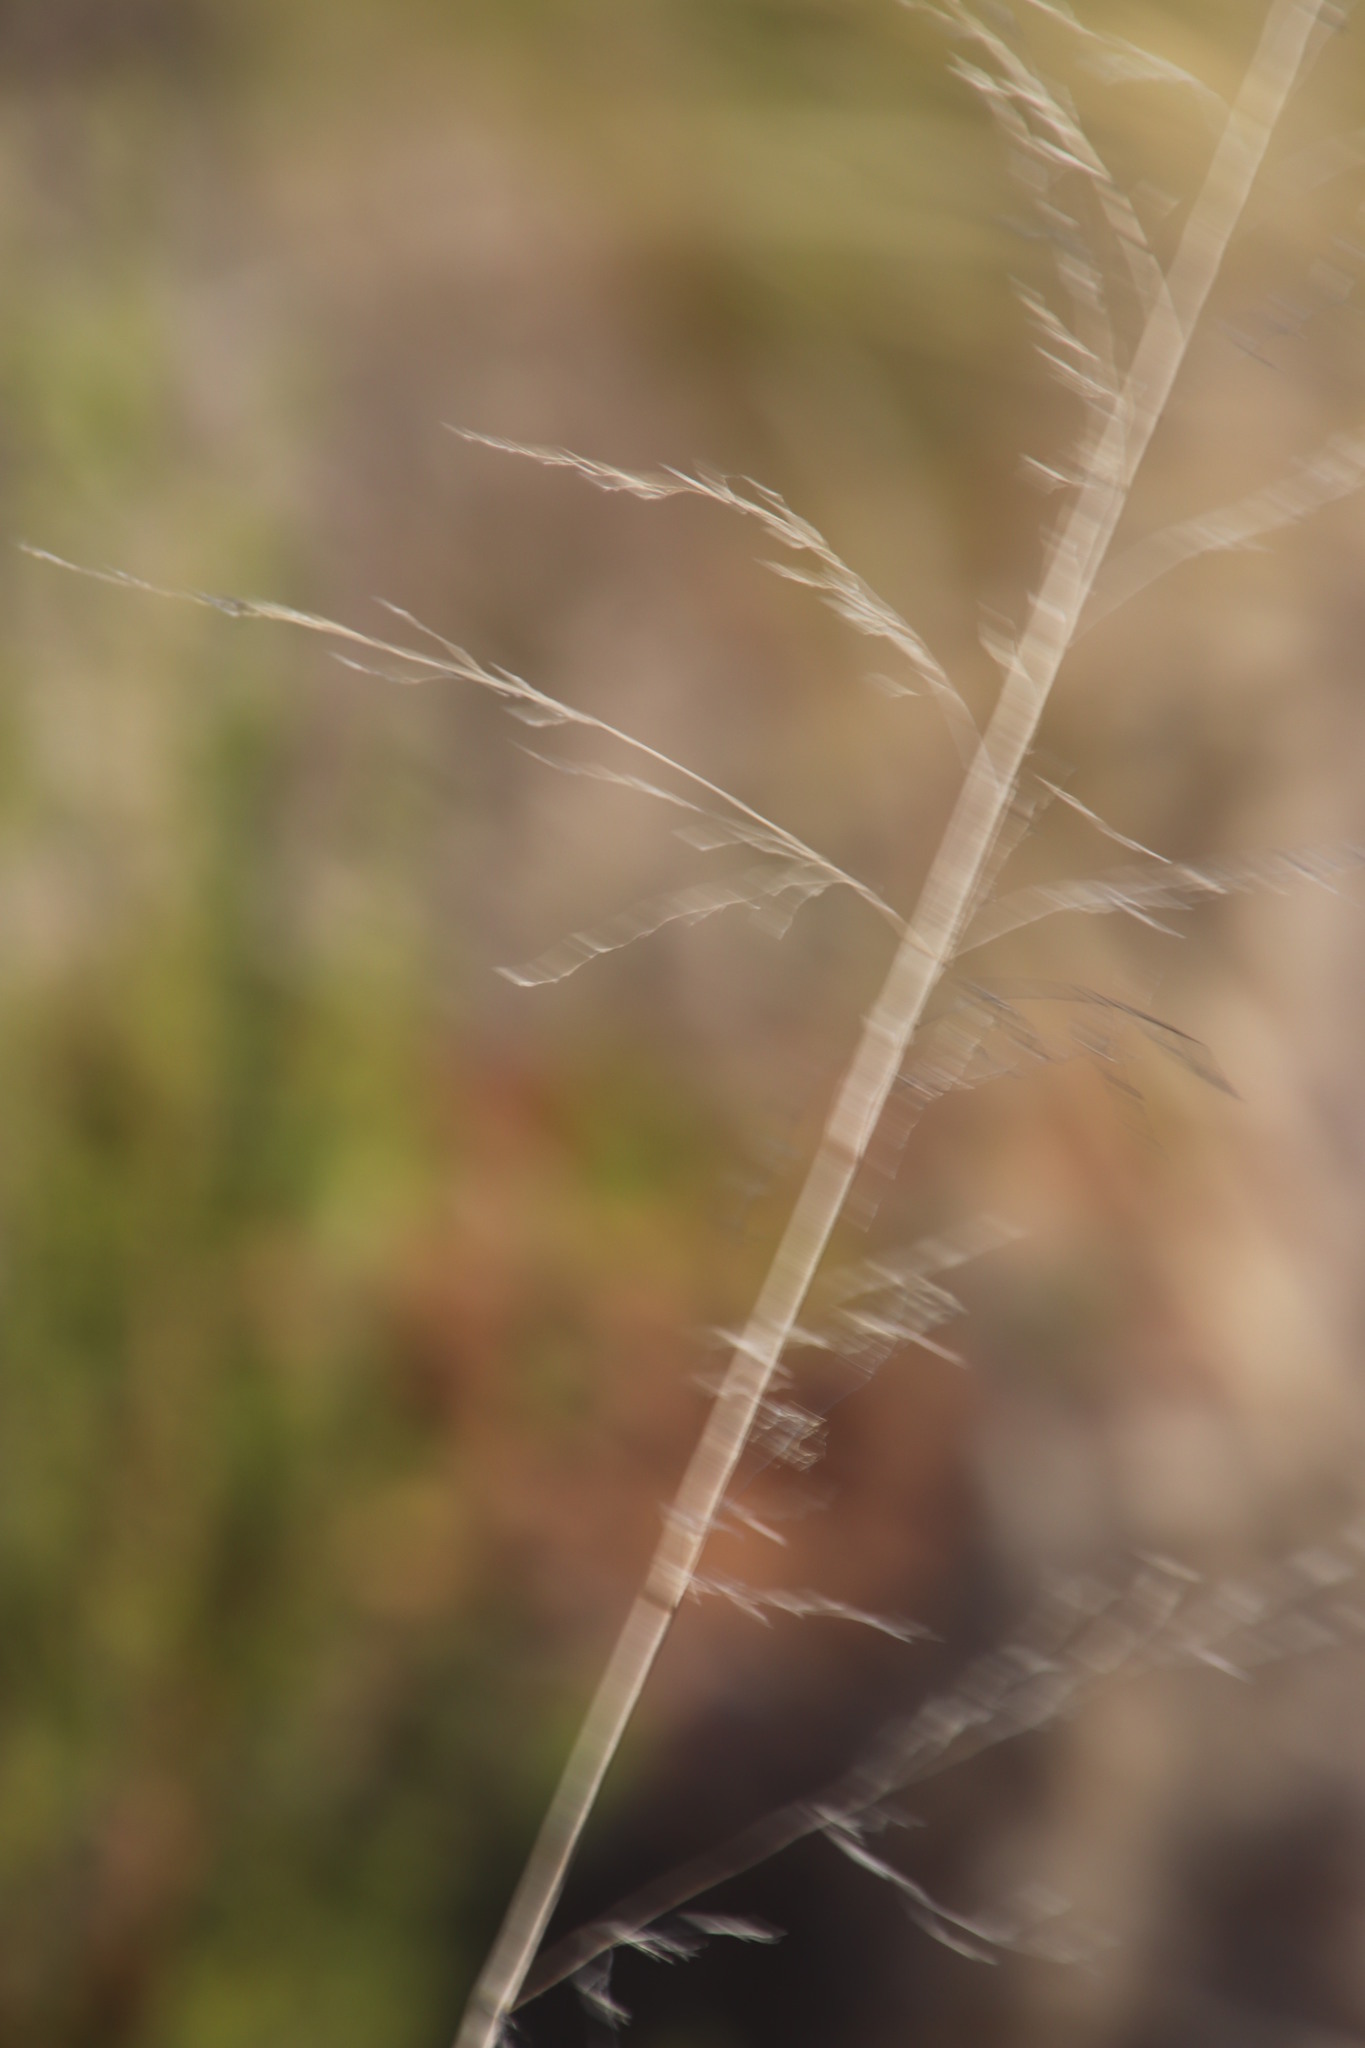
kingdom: Plantae
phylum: Tracheophyta
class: Liliopsida
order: Poales
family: Poaceae
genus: Eragrostis
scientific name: Eragrostis curvula
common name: African love-grass
